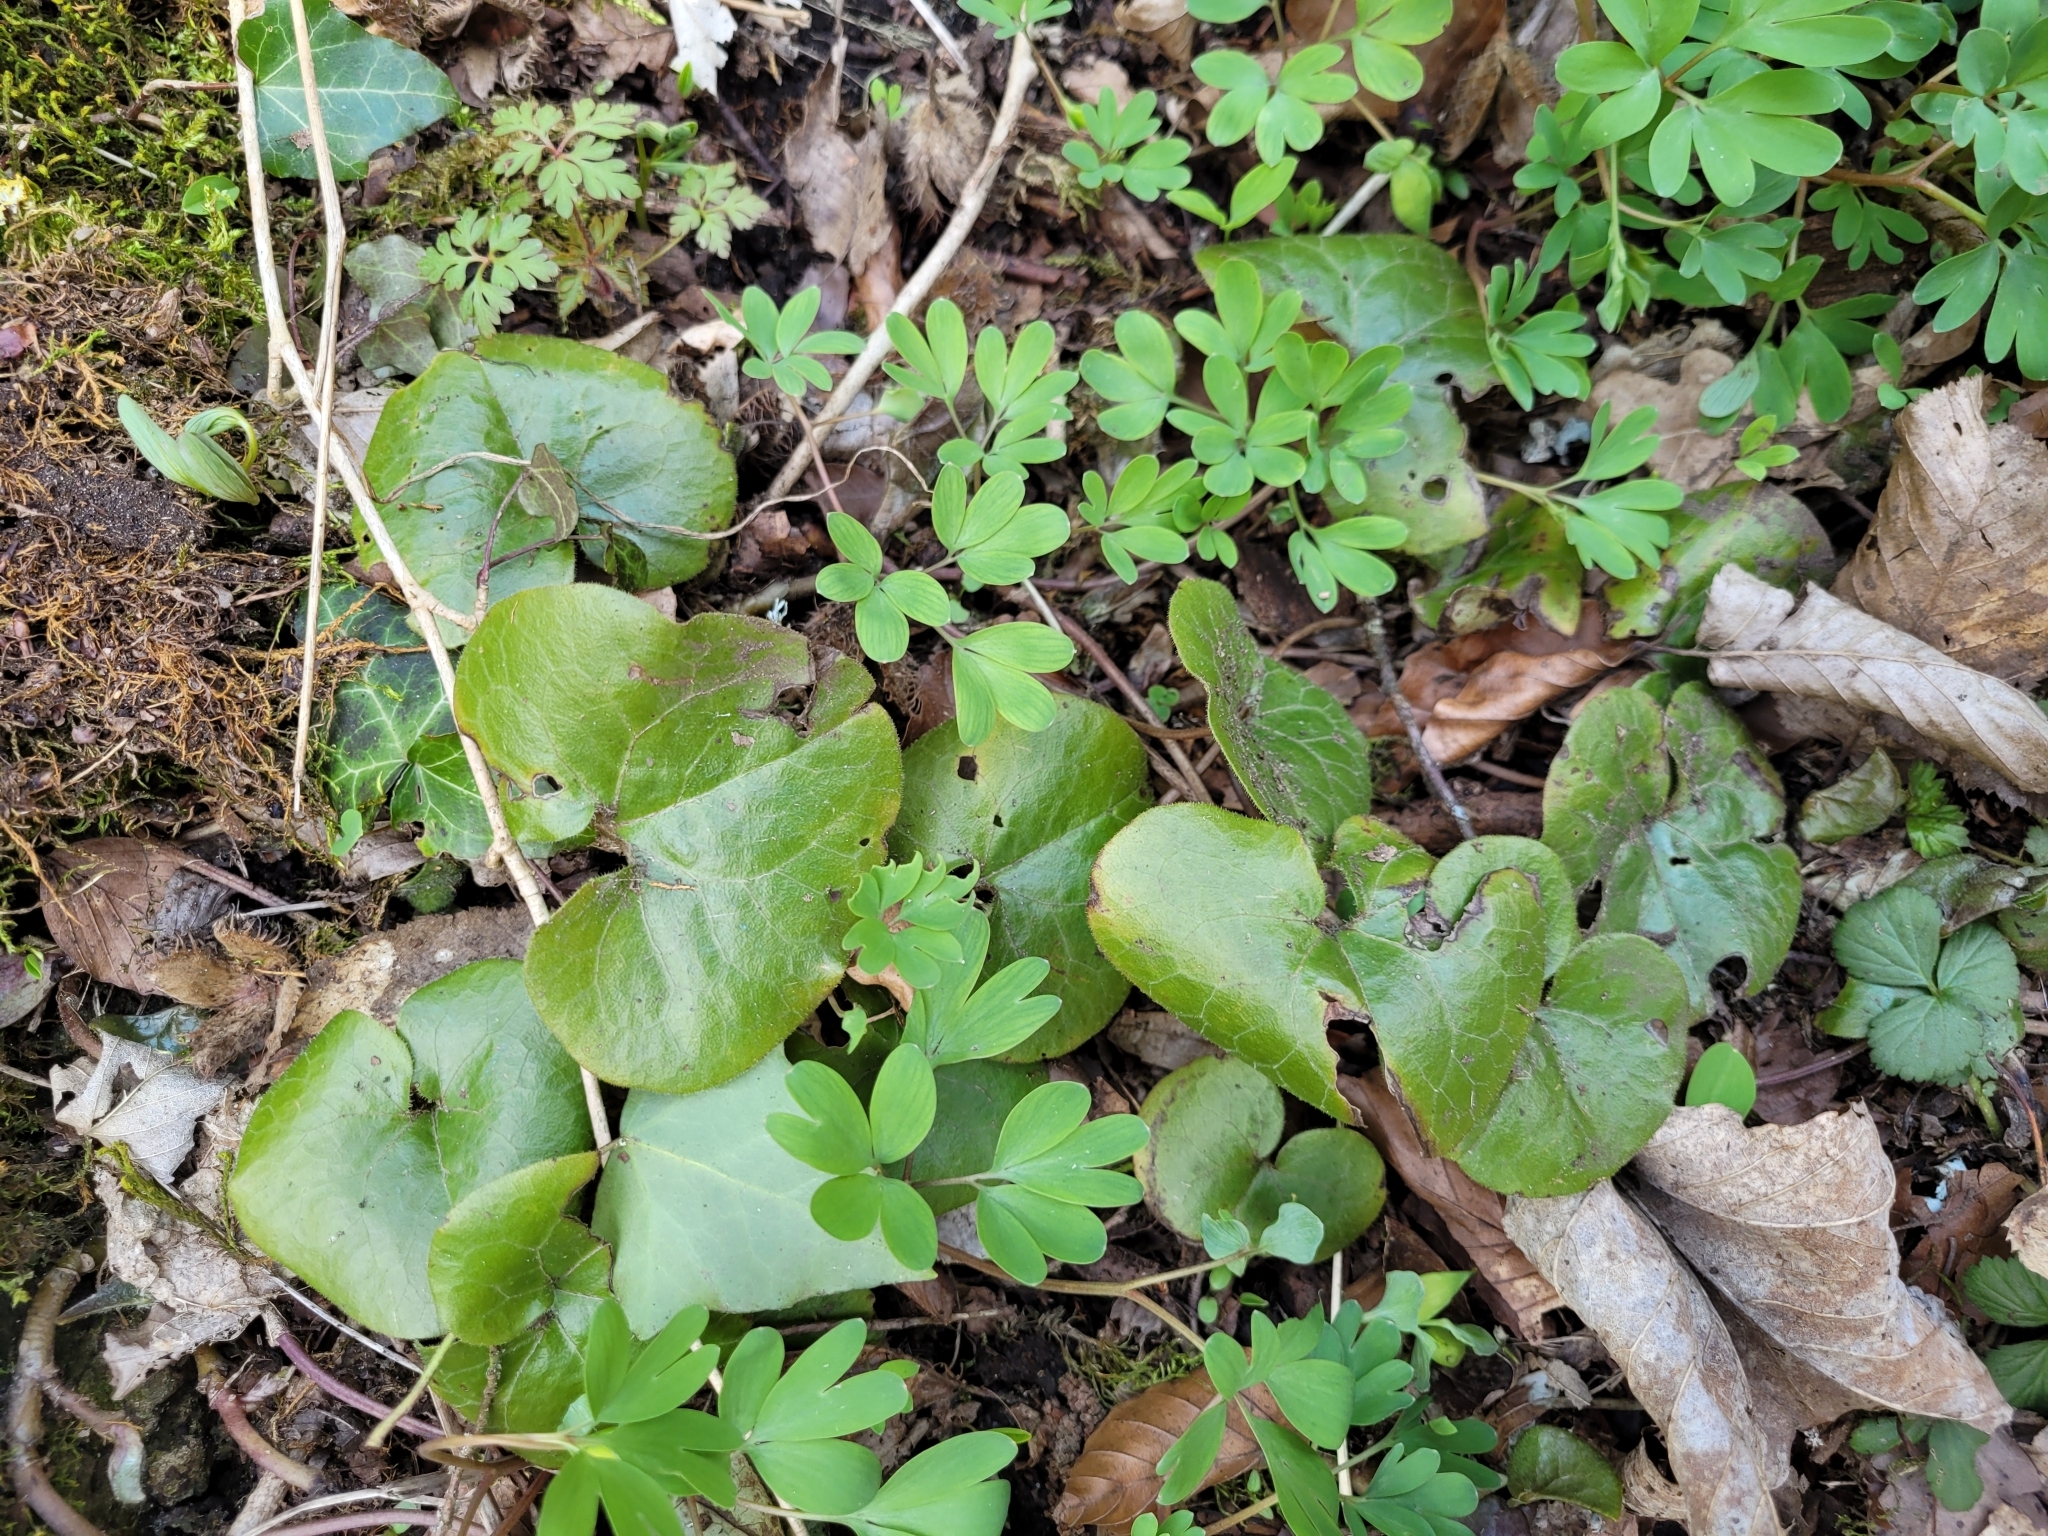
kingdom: Plantae
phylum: Tracheophyta
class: Magnoliopsida
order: Piperales
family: Aristolochiaceae
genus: Asarum
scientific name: Asarum europaeum
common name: Asarabacca
